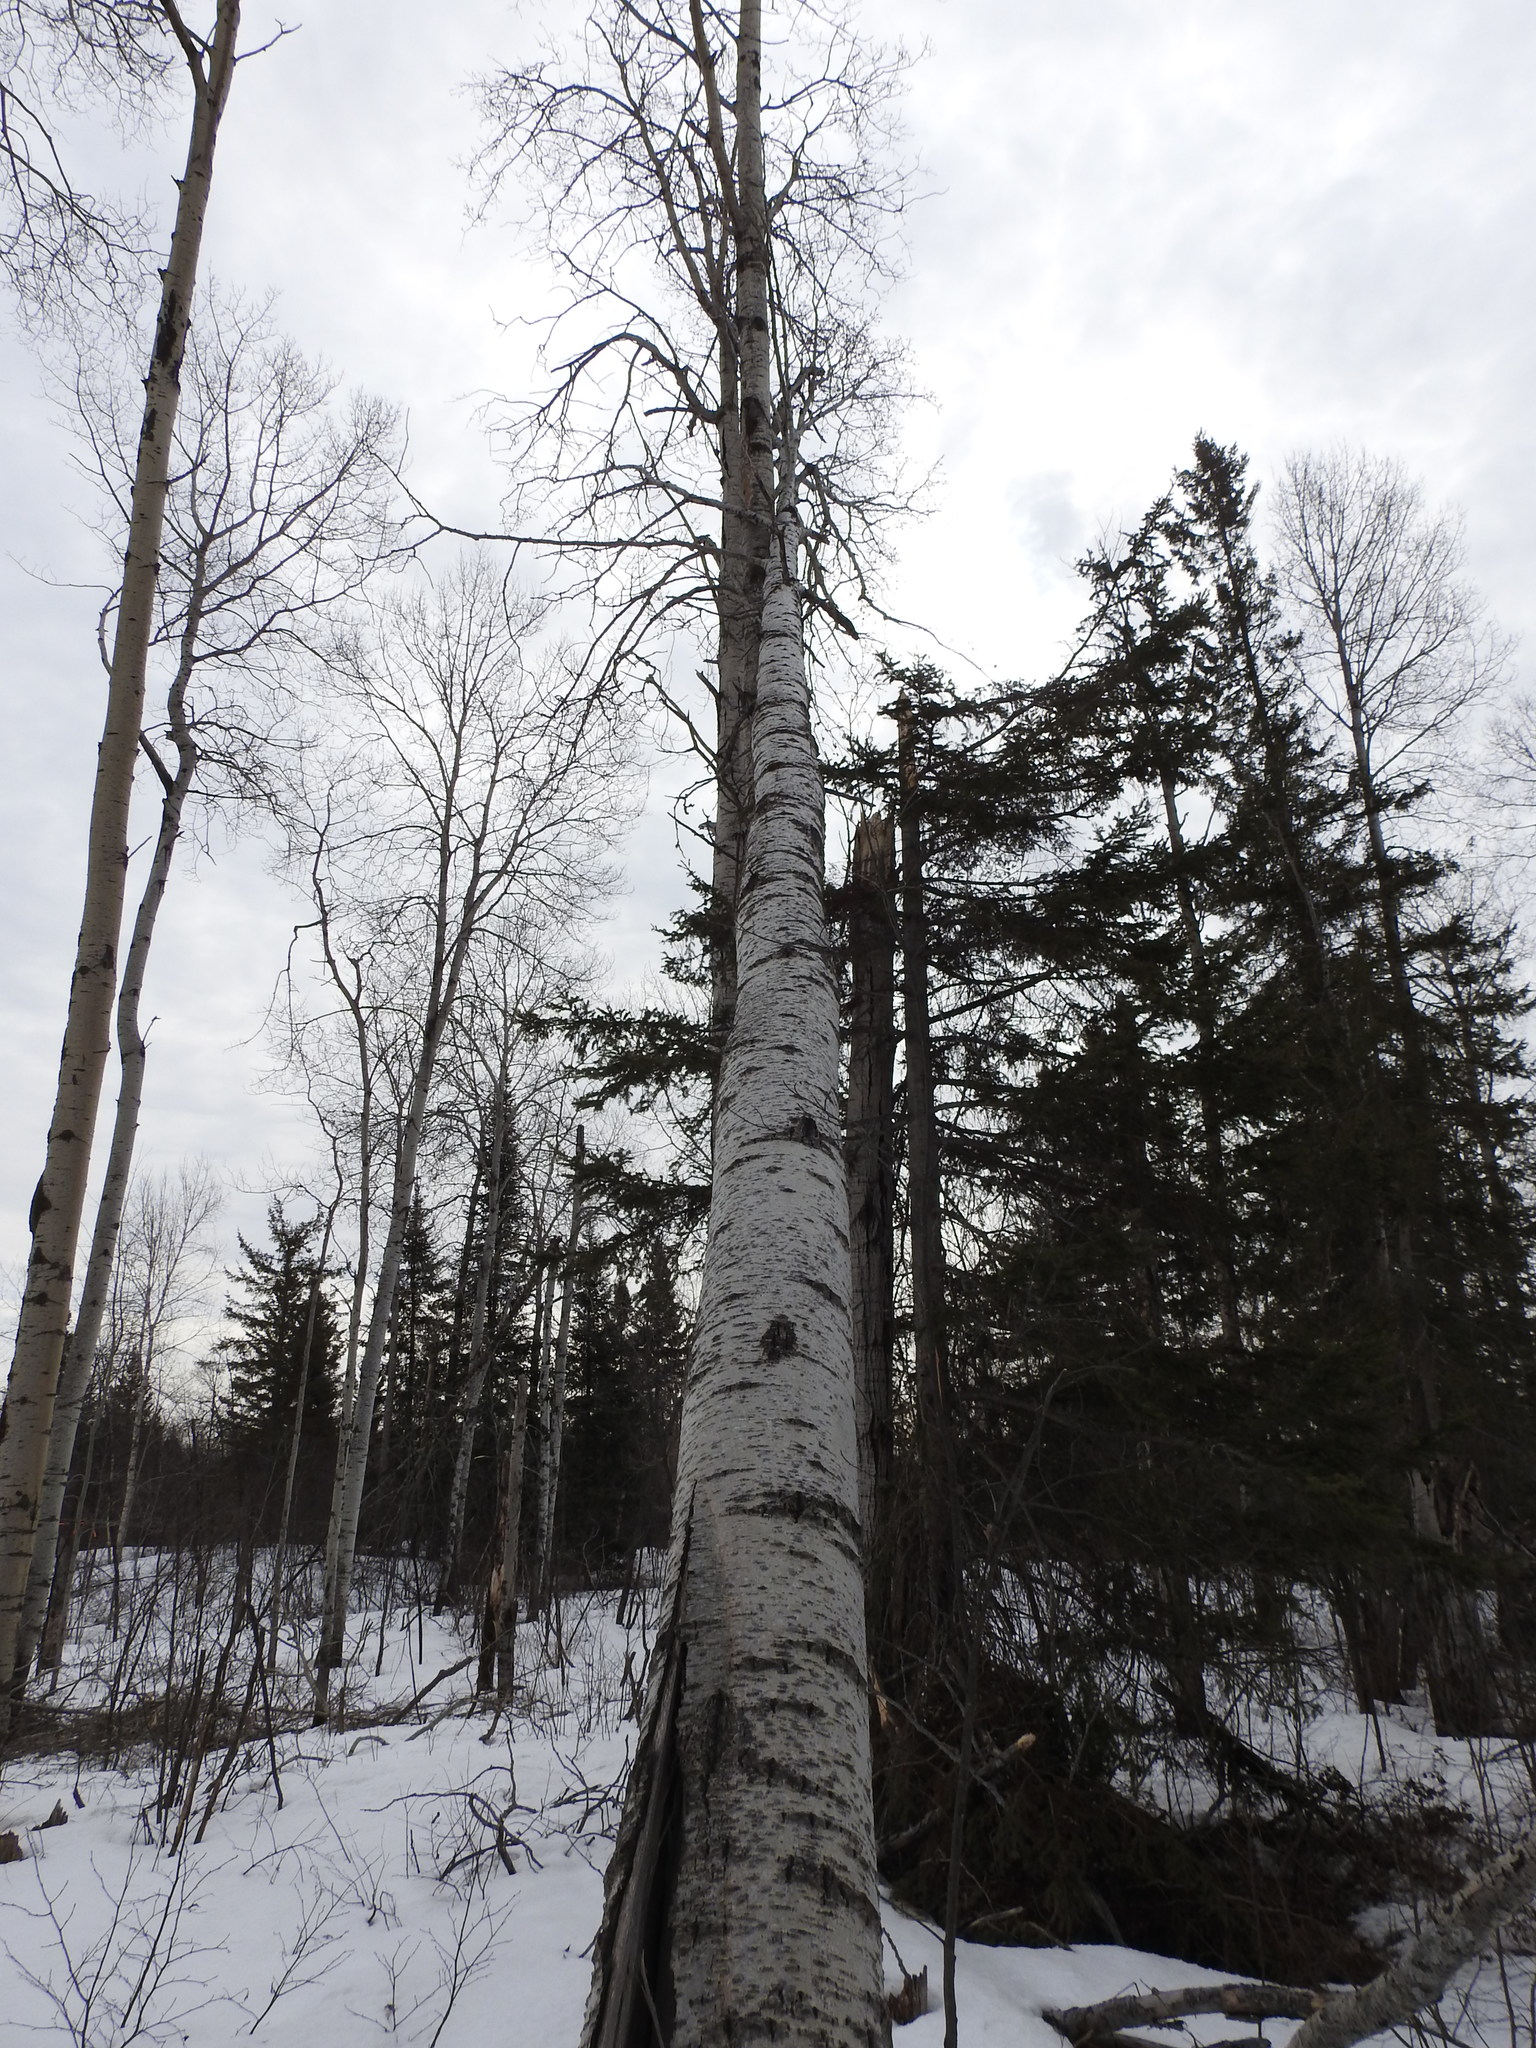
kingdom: Plantae
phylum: Tracheophyta
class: Magnoliopsida
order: Malpighiales
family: Salicaceae
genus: Populus
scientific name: Populus tremuloides
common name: Quaking aspen
